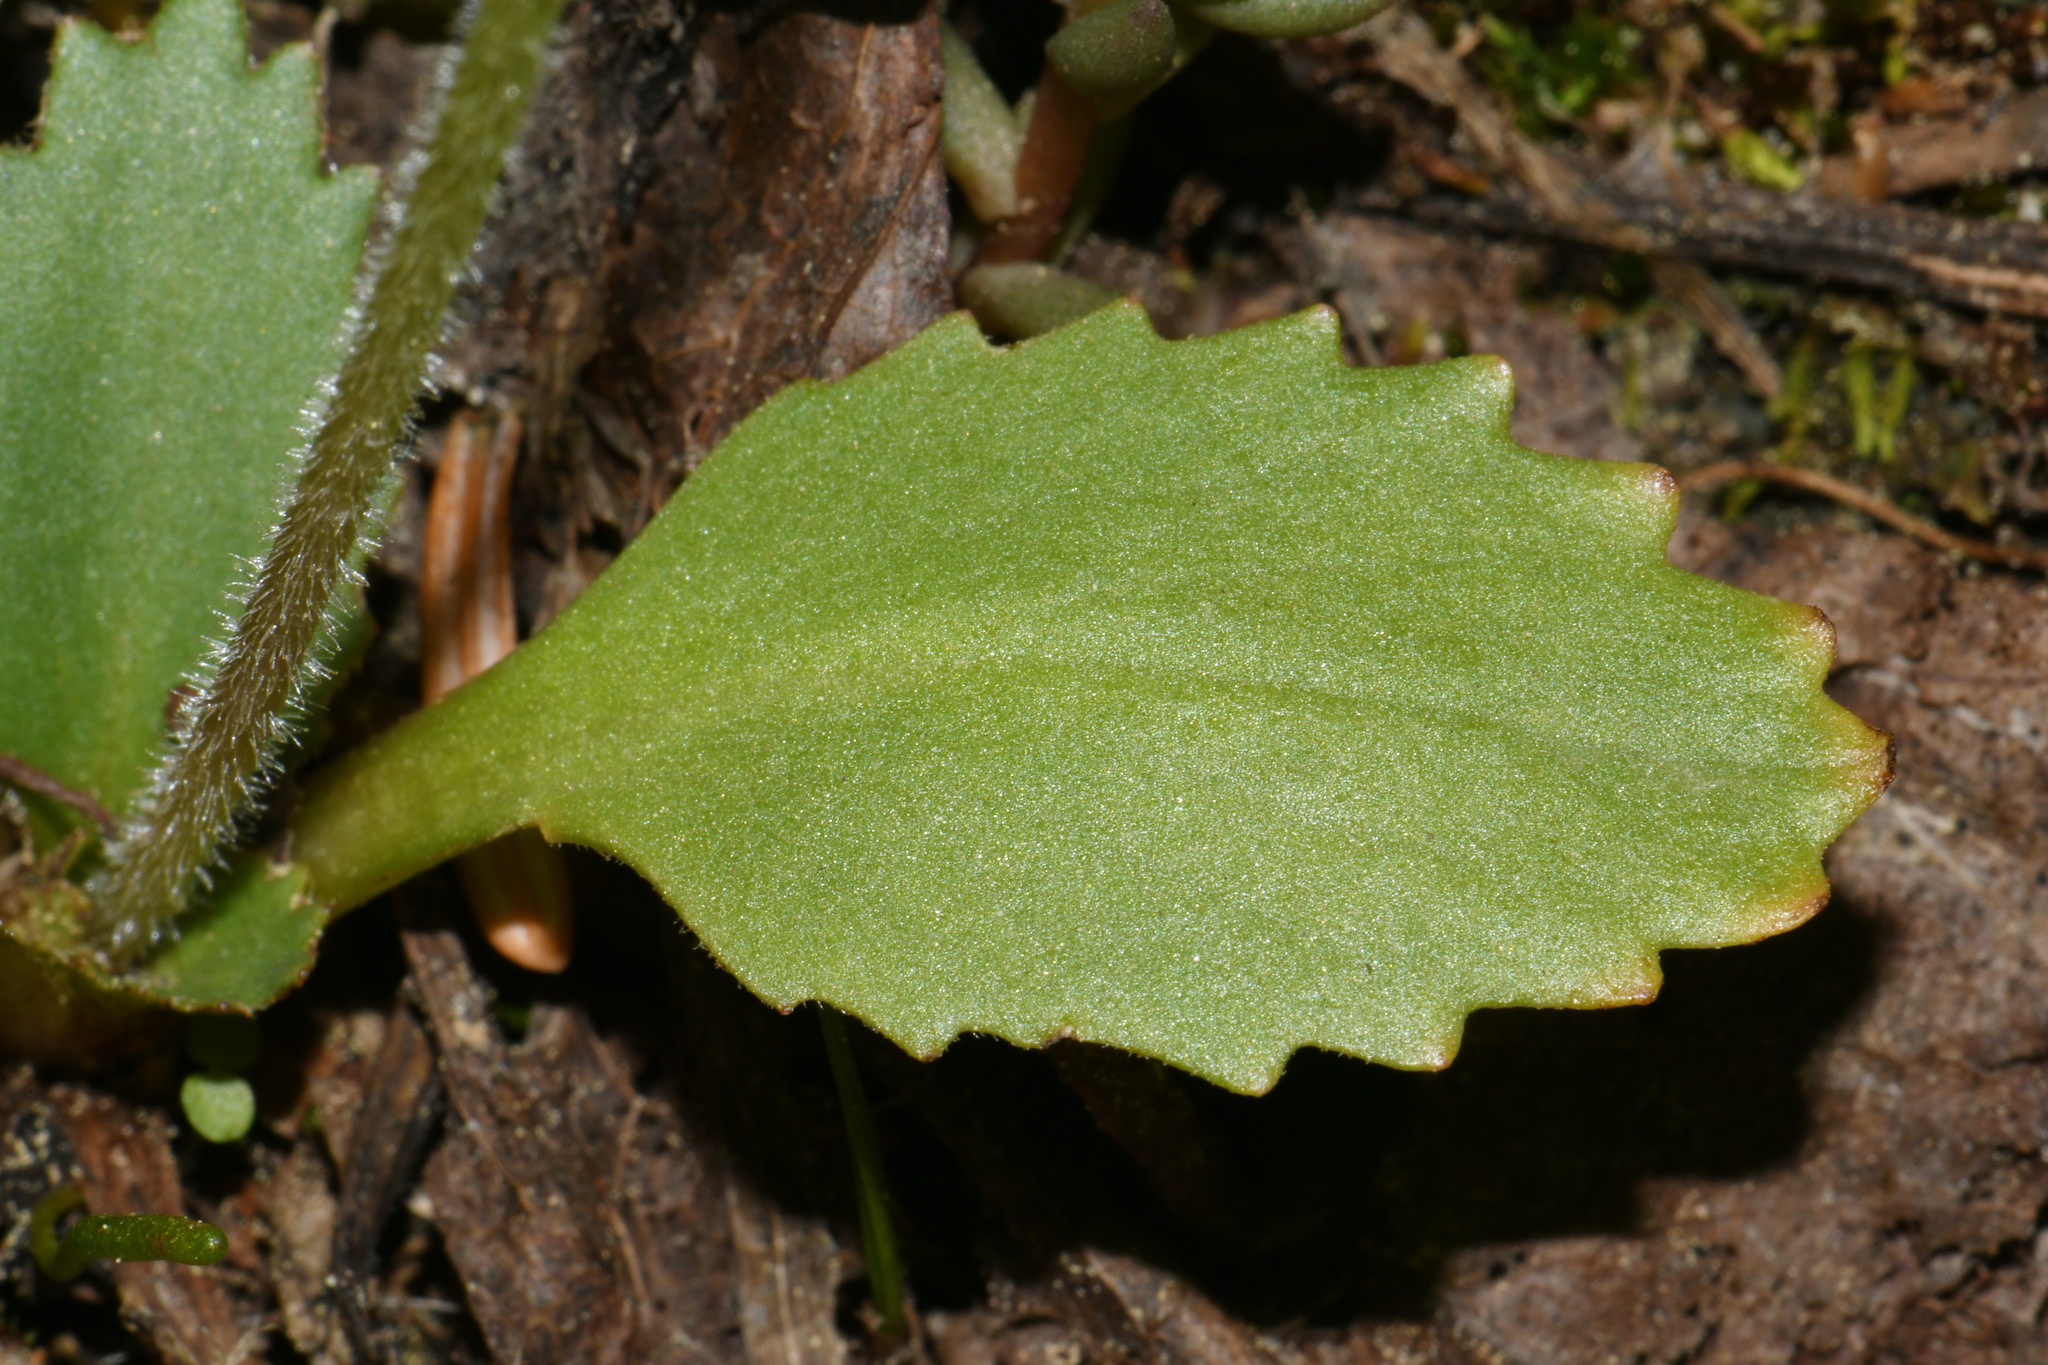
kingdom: Plantae
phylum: Tracheophyta
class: Magnoliopsida
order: Saxifragales
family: Saxifragaceae
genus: Micranthes
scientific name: Micranthes occidentalis
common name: Alberta saxifrage
